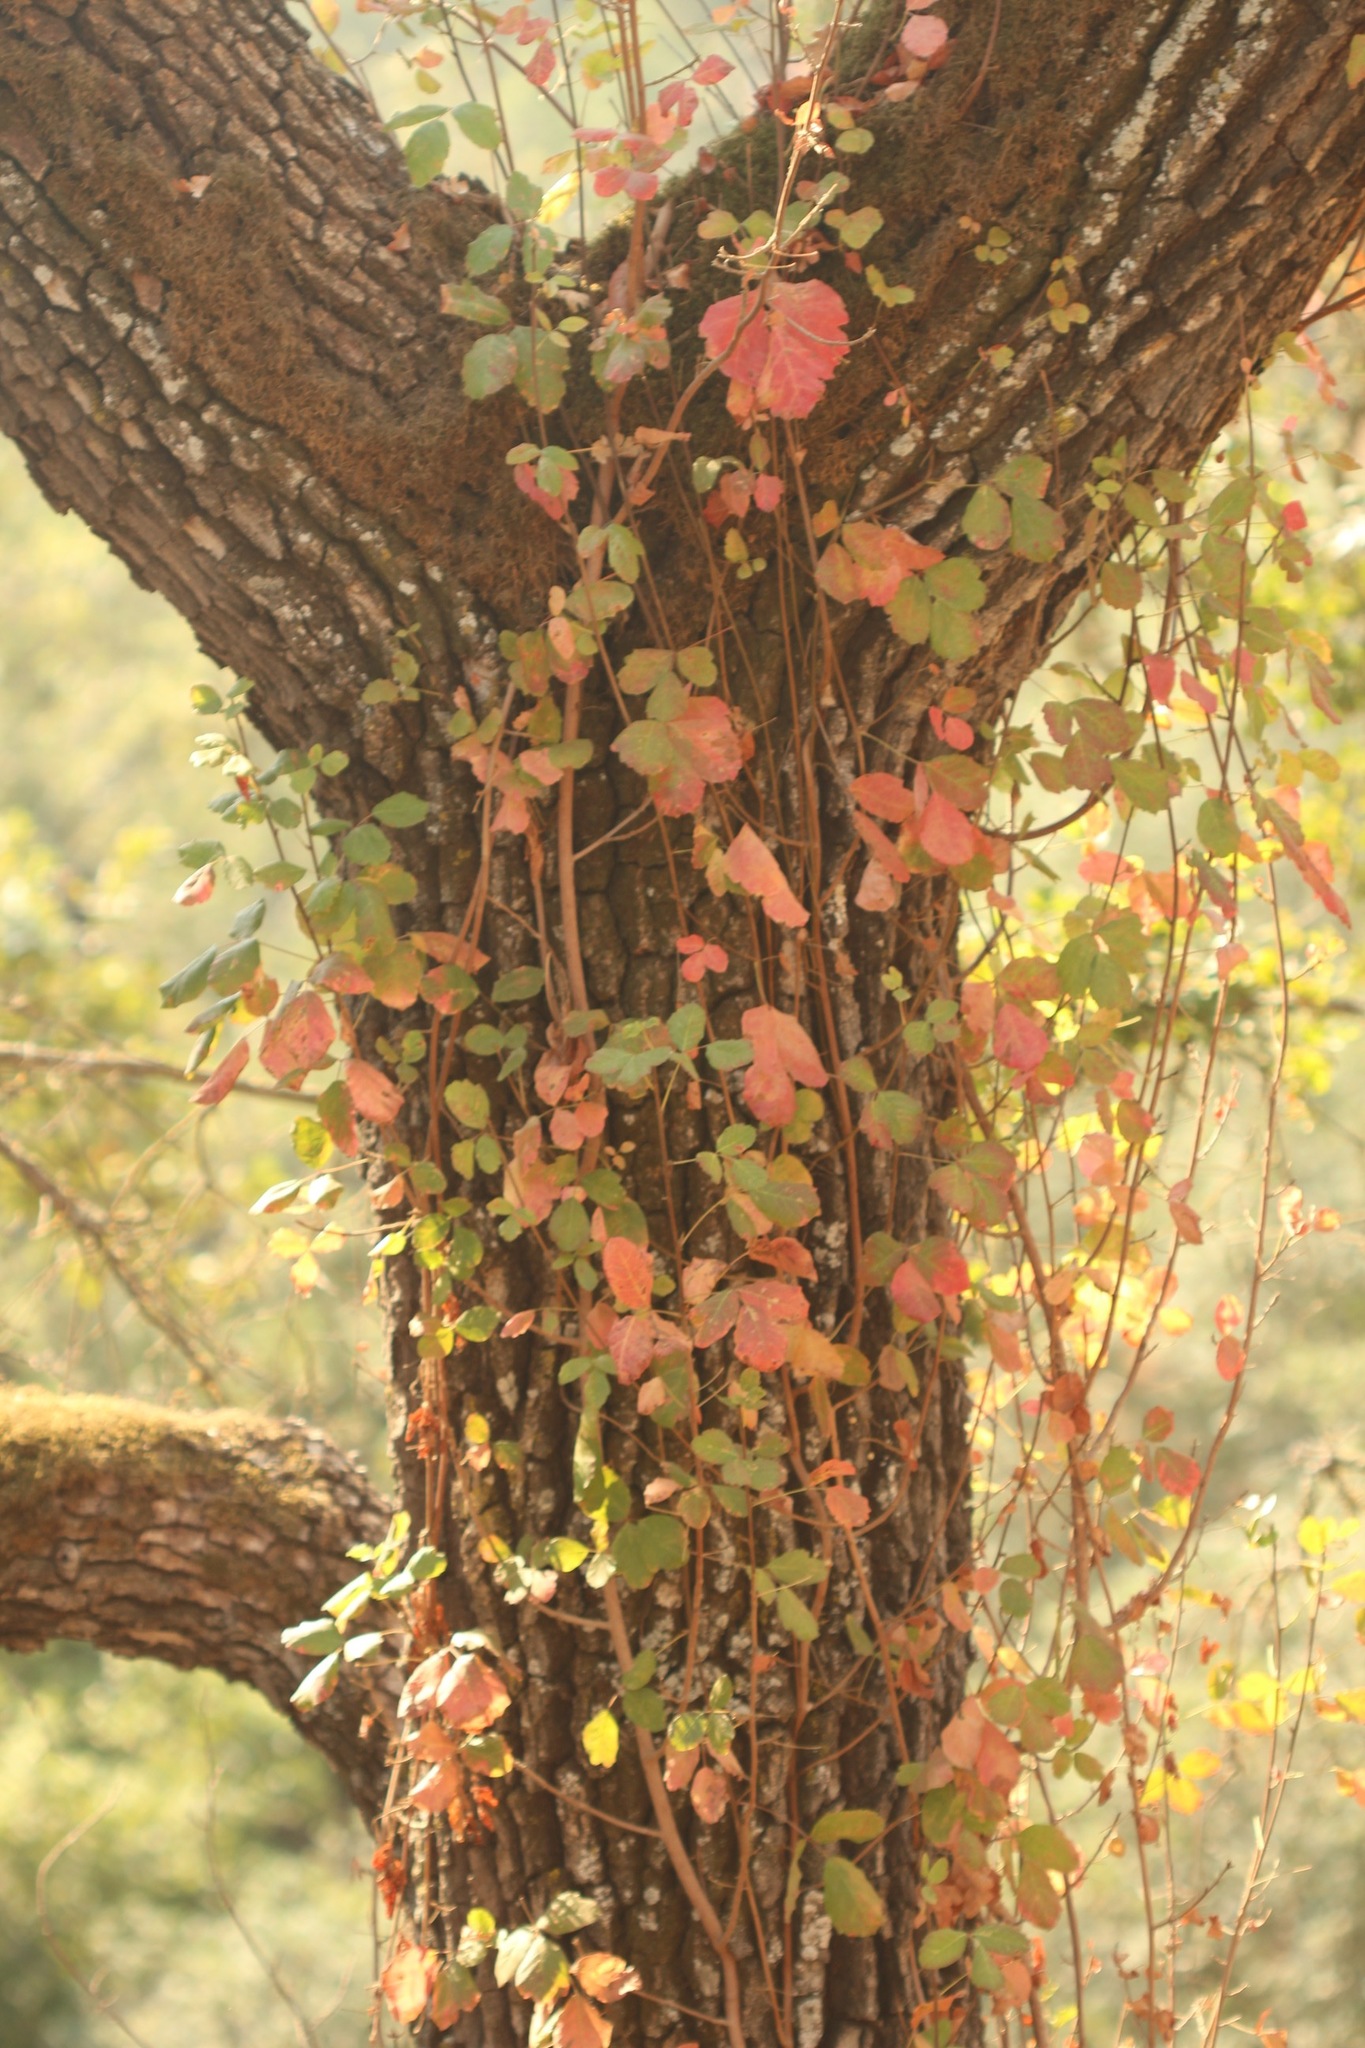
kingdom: Plantae
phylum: Tracheophyta
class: Magnoliopsida
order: Sapindales
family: Anacardiaceae
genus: Toxicodendron
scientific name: Toxicodendron diversilobum
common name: Pacific poison-oak
